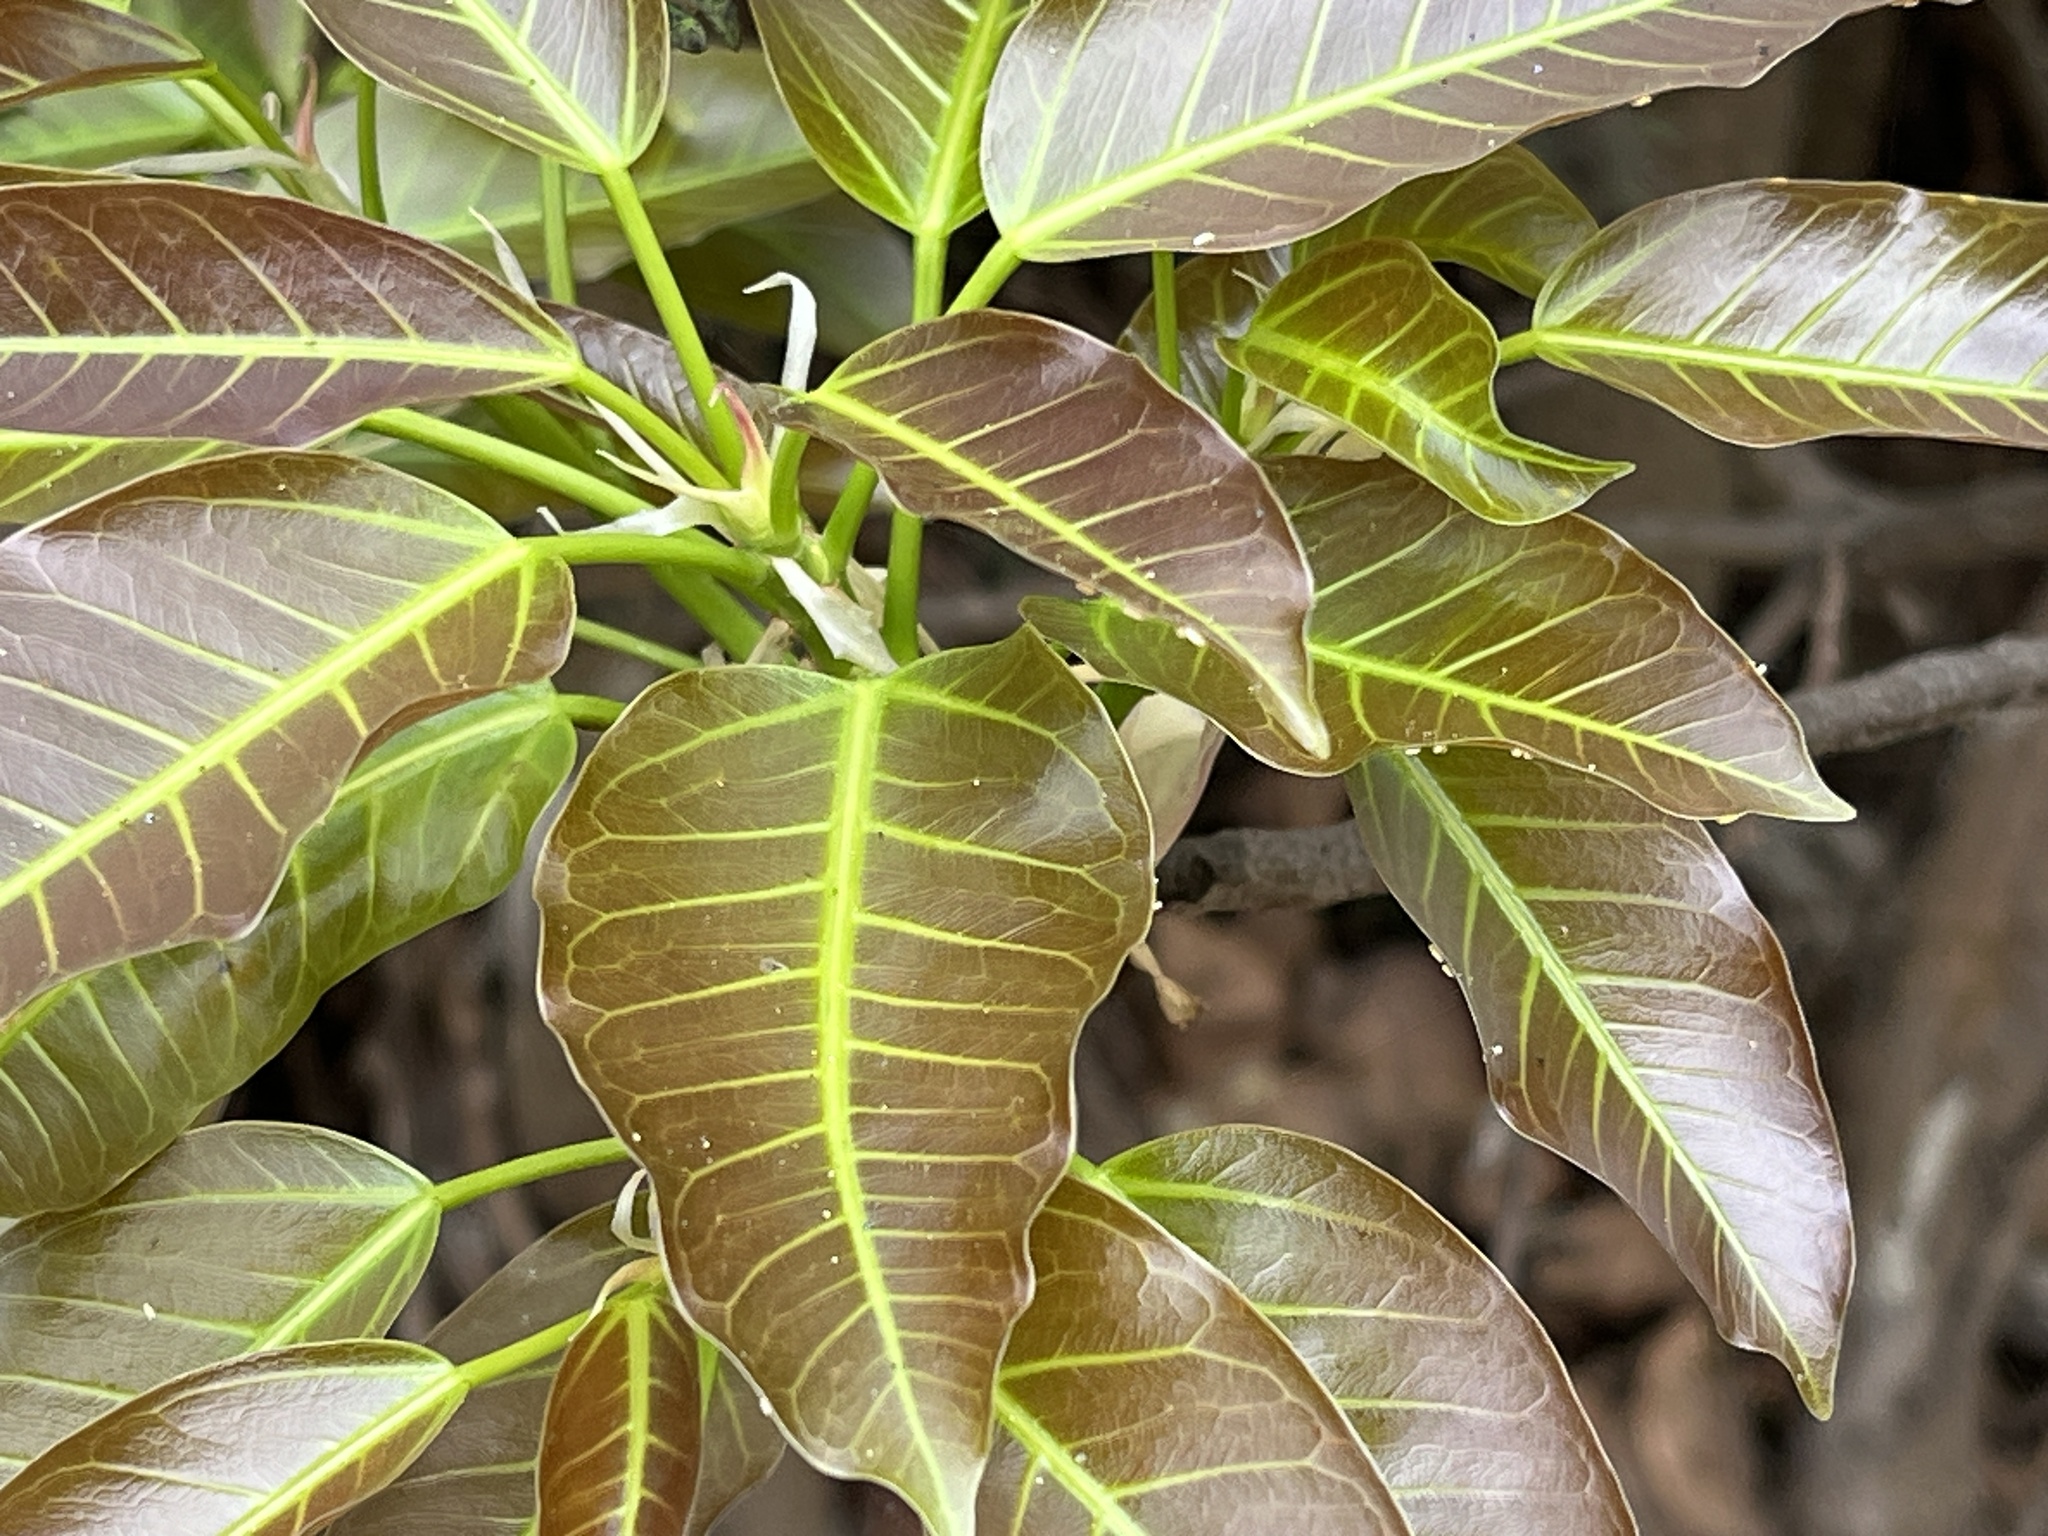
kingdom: Plantae
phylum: Tracheophyta
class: Magnoliopsida
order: Rosales
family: Moraceae
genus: Ficus
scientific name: Ficus subpisocarpa
